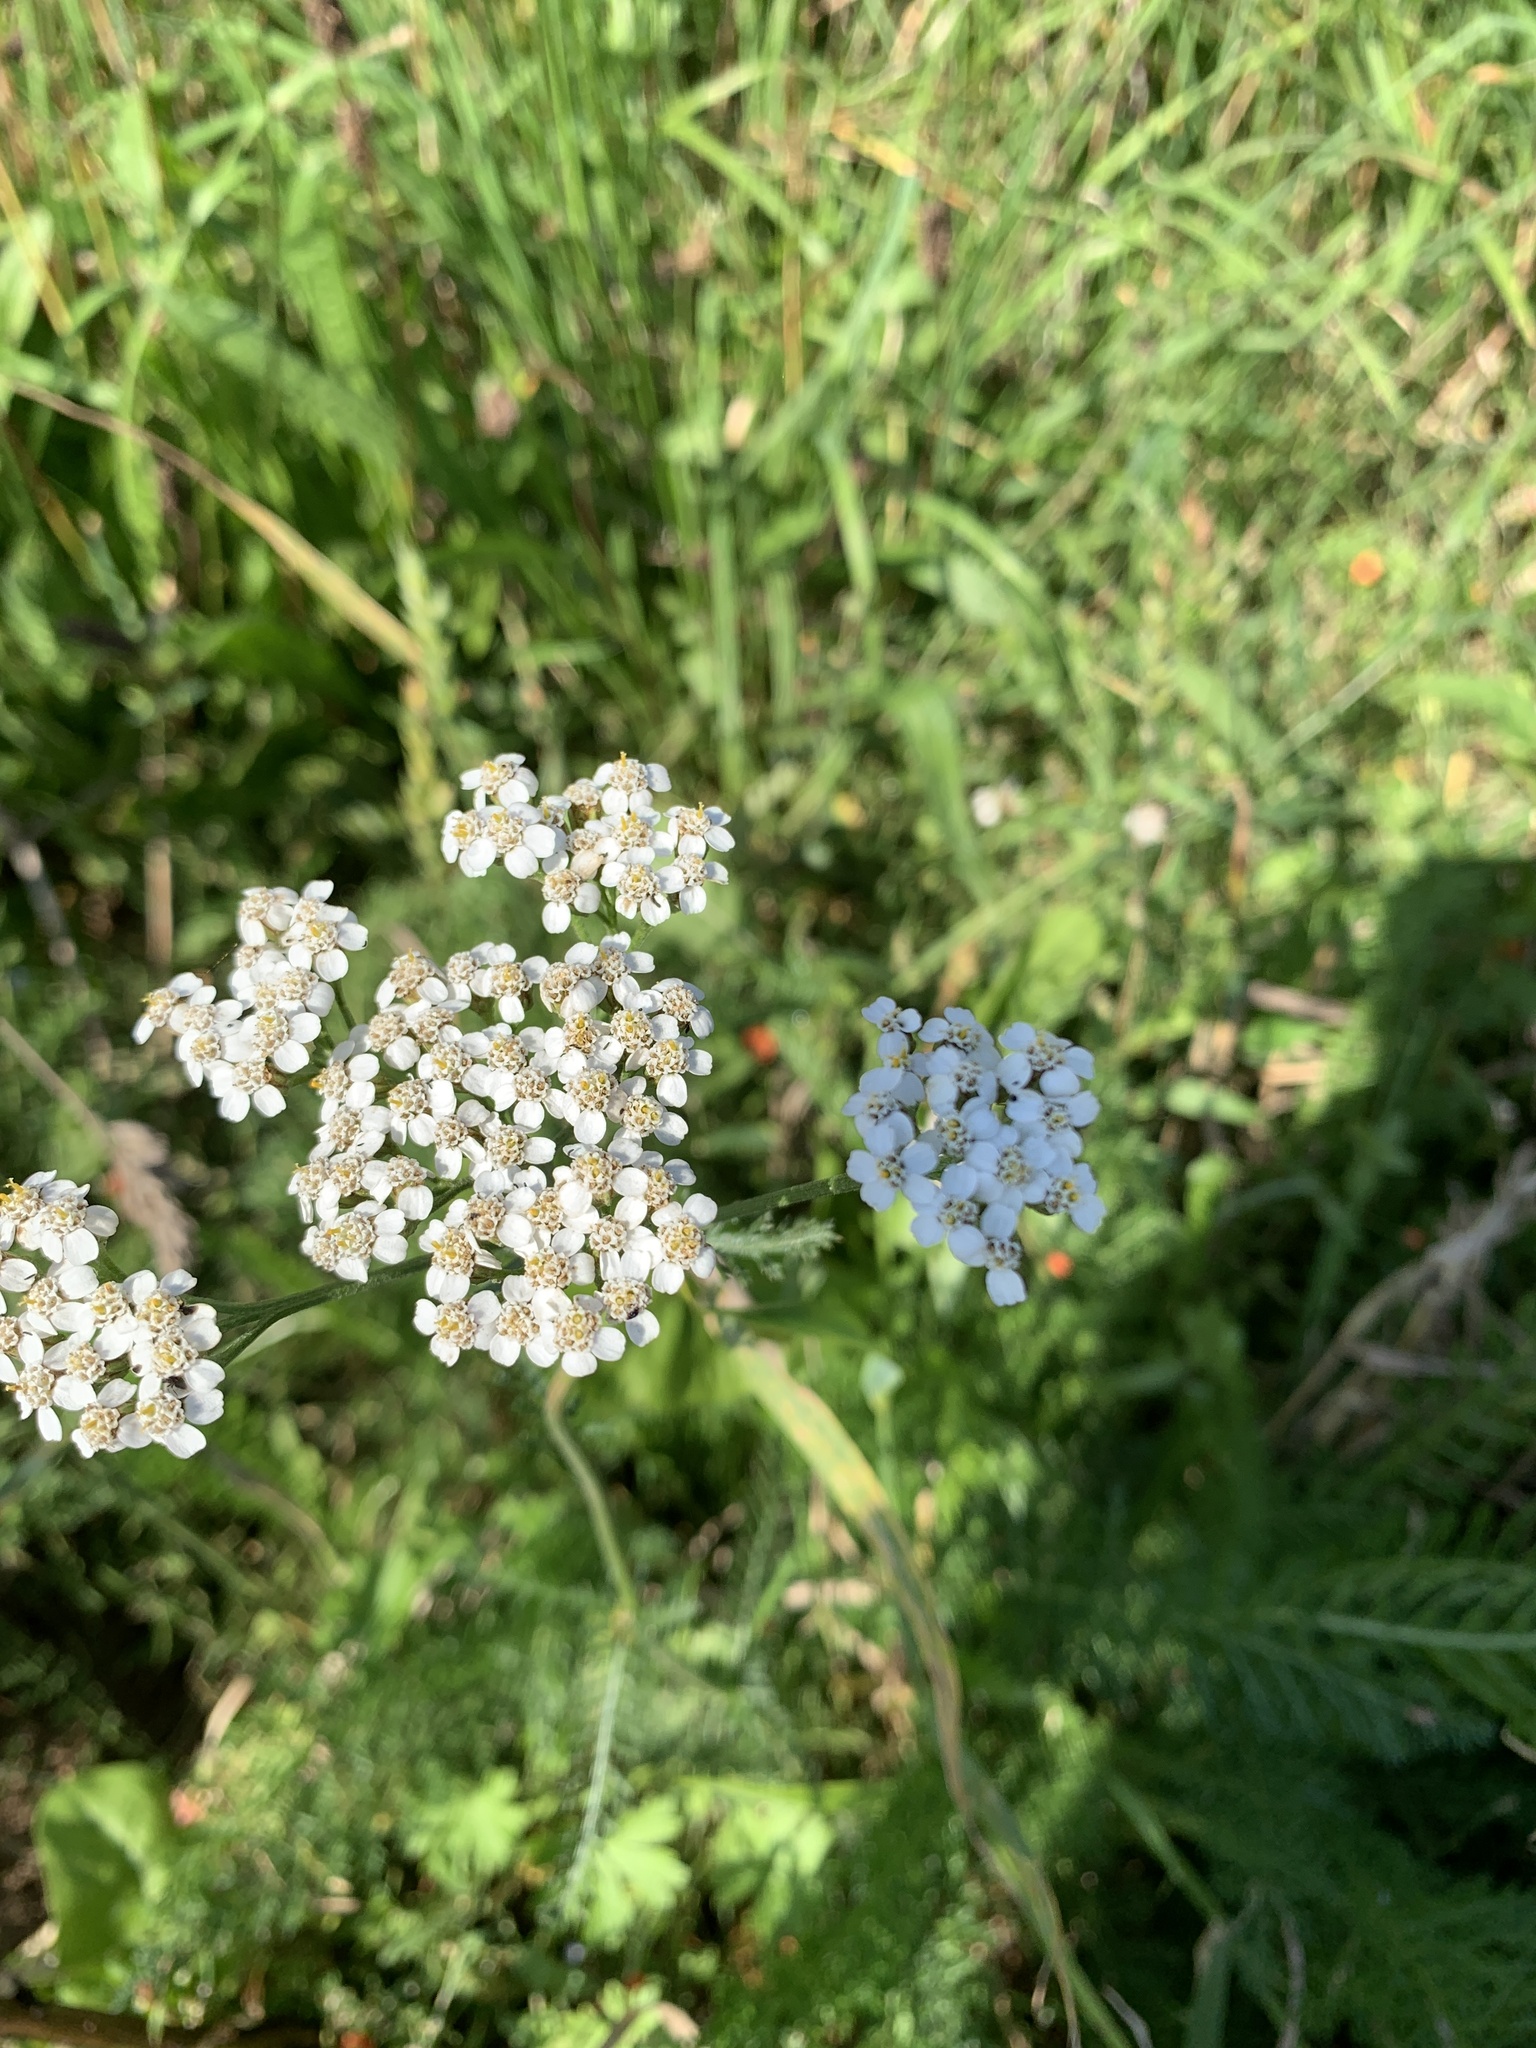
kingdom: Plantae
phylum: Tracheophyta
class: Magnoliopsida
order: Asterales
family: Asteraceae
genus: Achillea
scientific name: Achillea millefolium
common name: Yarrow
